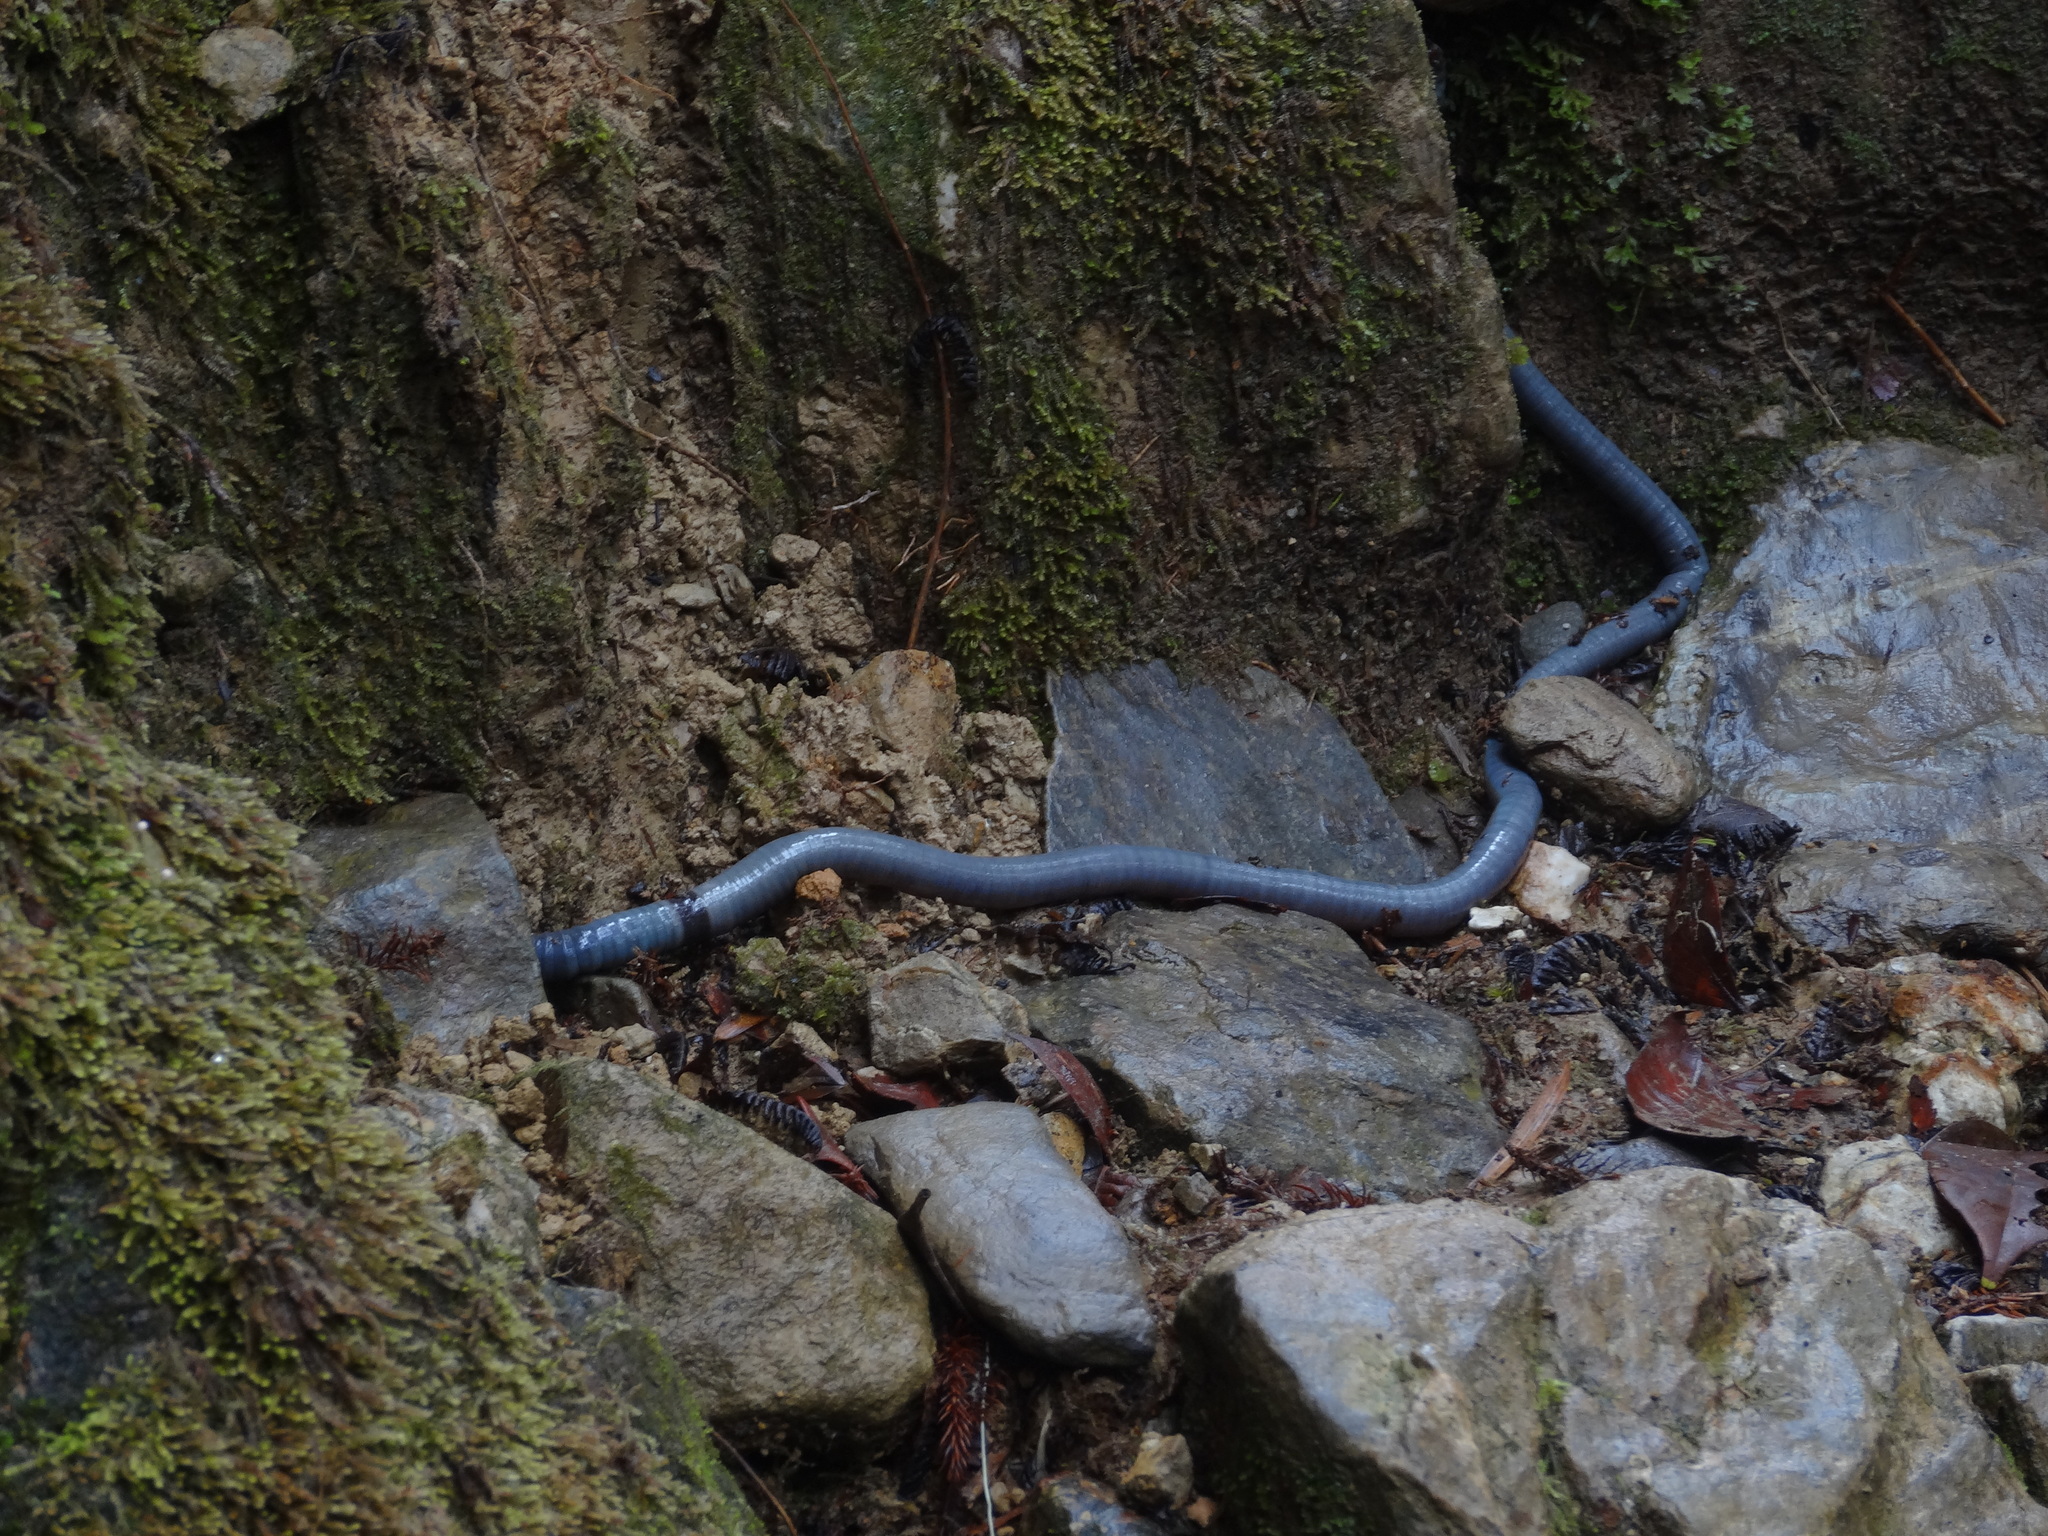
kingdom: Animalia
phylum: Annelida
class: Clitellata
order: Crassiclitellata
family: Megascolecidae
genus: Perichaeta
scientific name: Perichaeta darnleiensis
